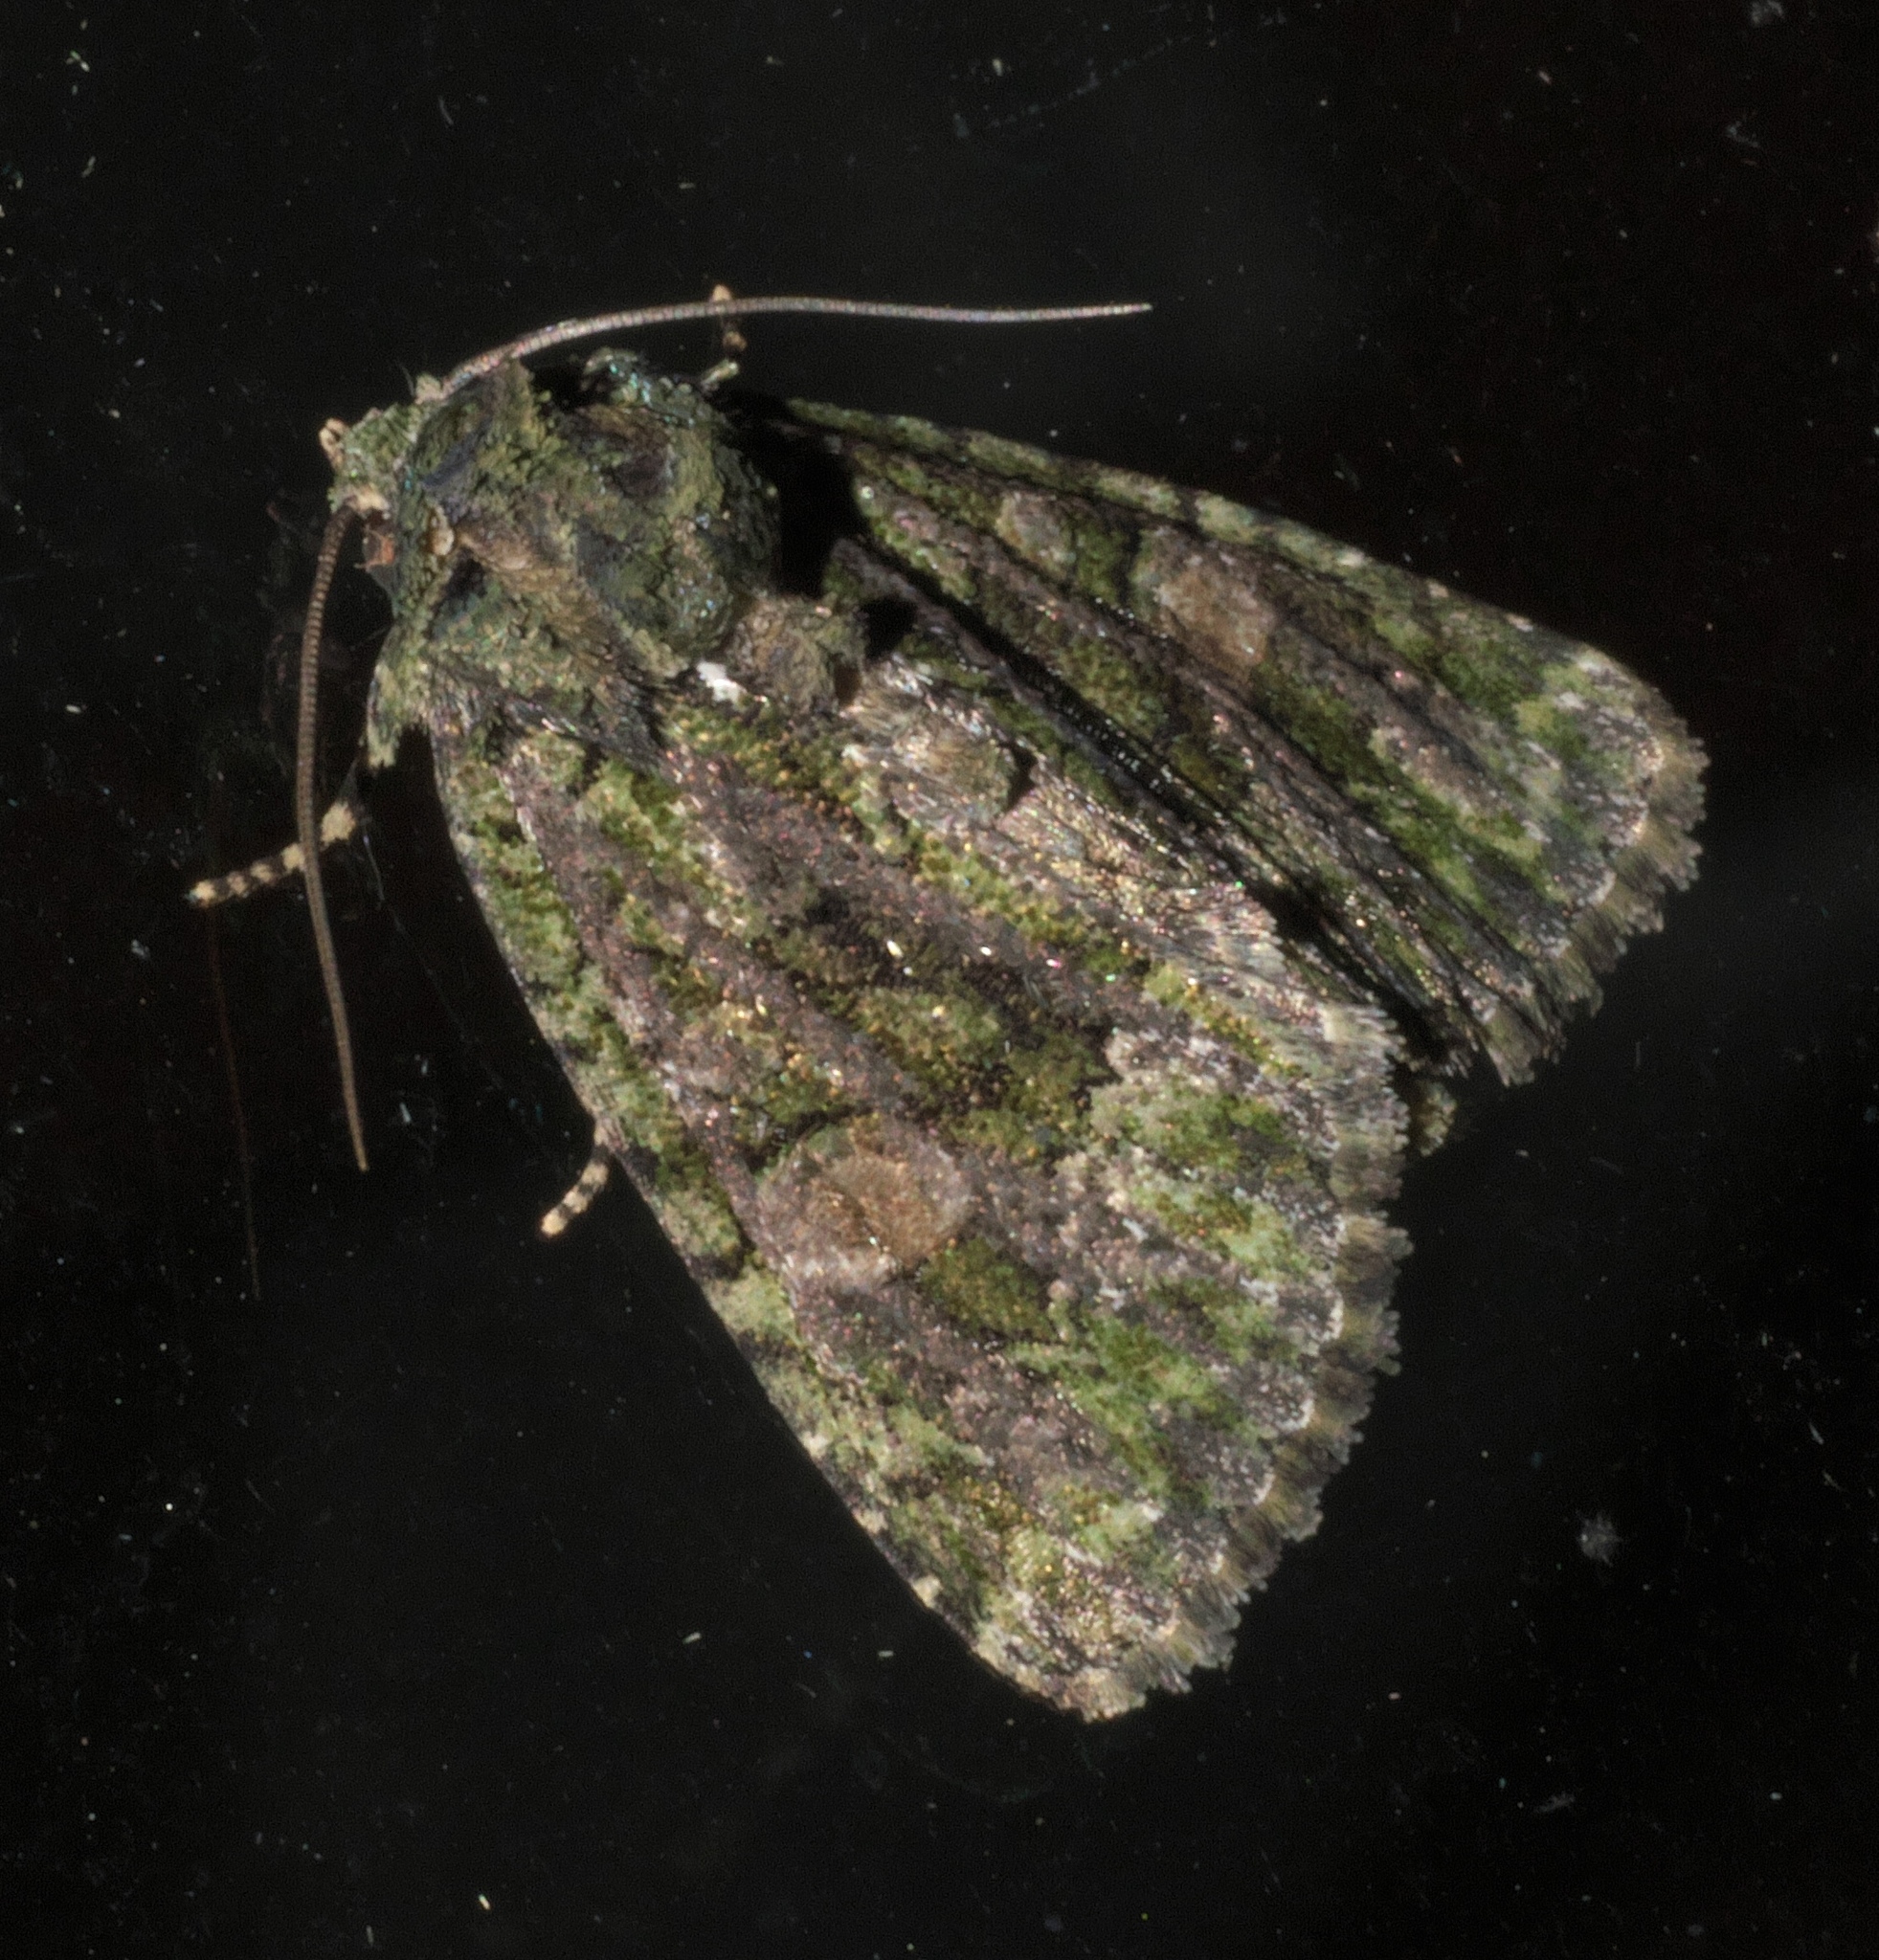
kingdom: Animalia
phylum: Arthropoda
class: Insecta
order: Lepidoptera
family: Noctuidae
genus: Phosphila
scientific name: Phosphila miselioides
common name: Spotted phosphila moth
